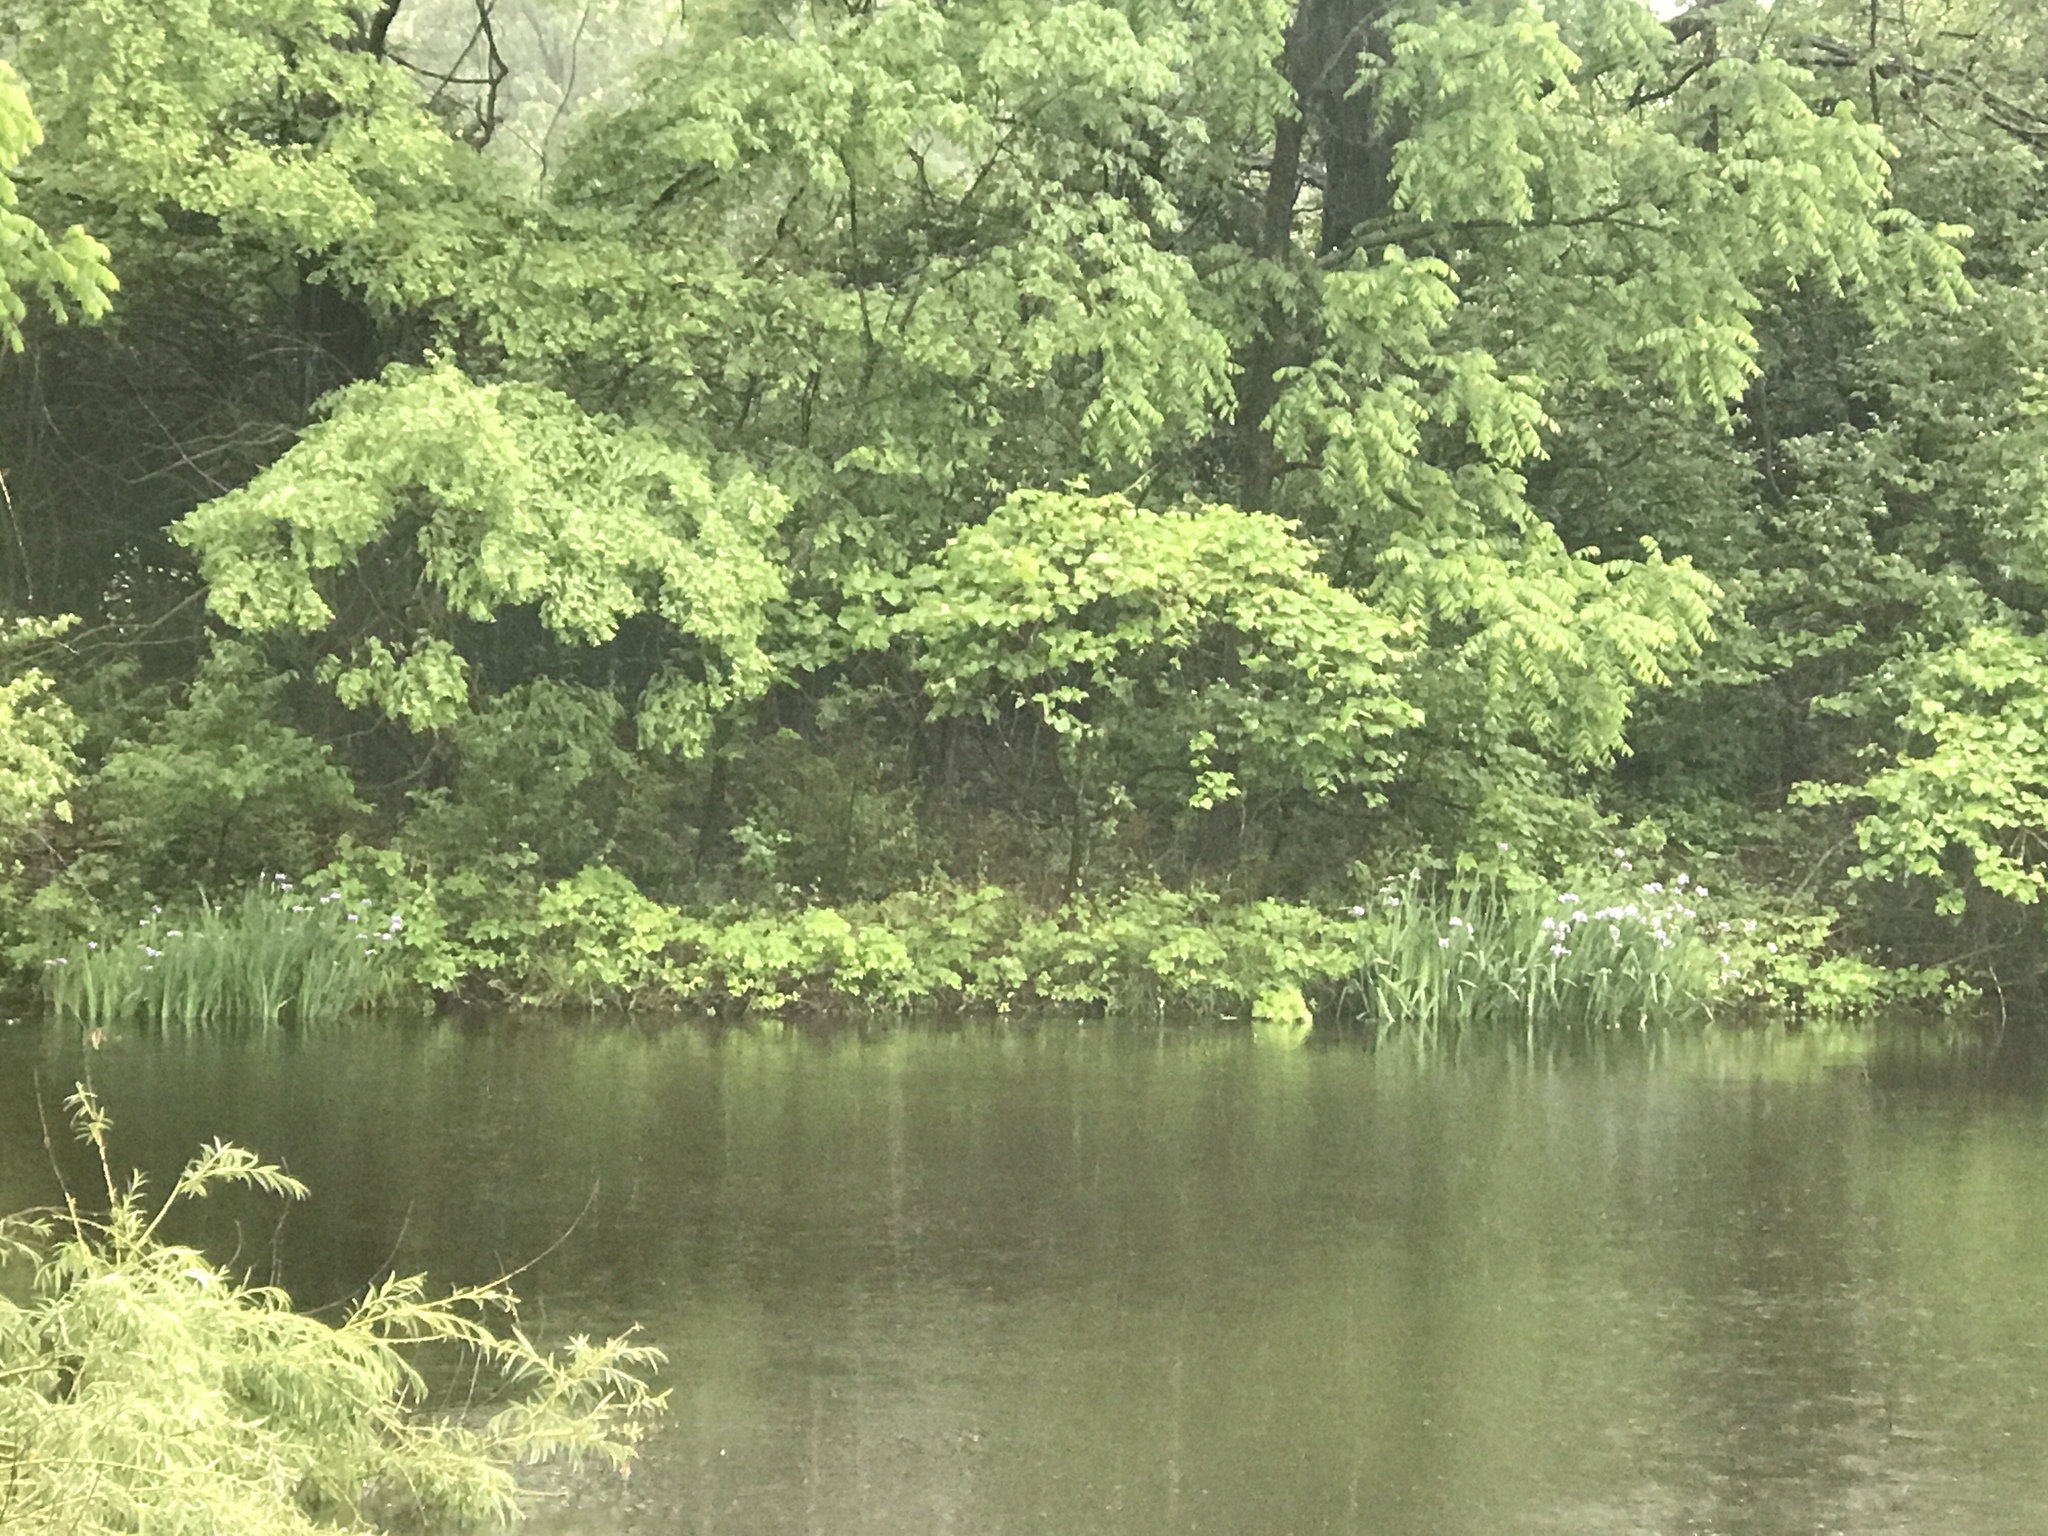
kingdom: Plantae
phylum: Tracheophyta
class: Liliopsida
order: Asparagales
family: Iridaceae
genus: Iris
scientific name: Iris versicolor
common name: Purple iris
